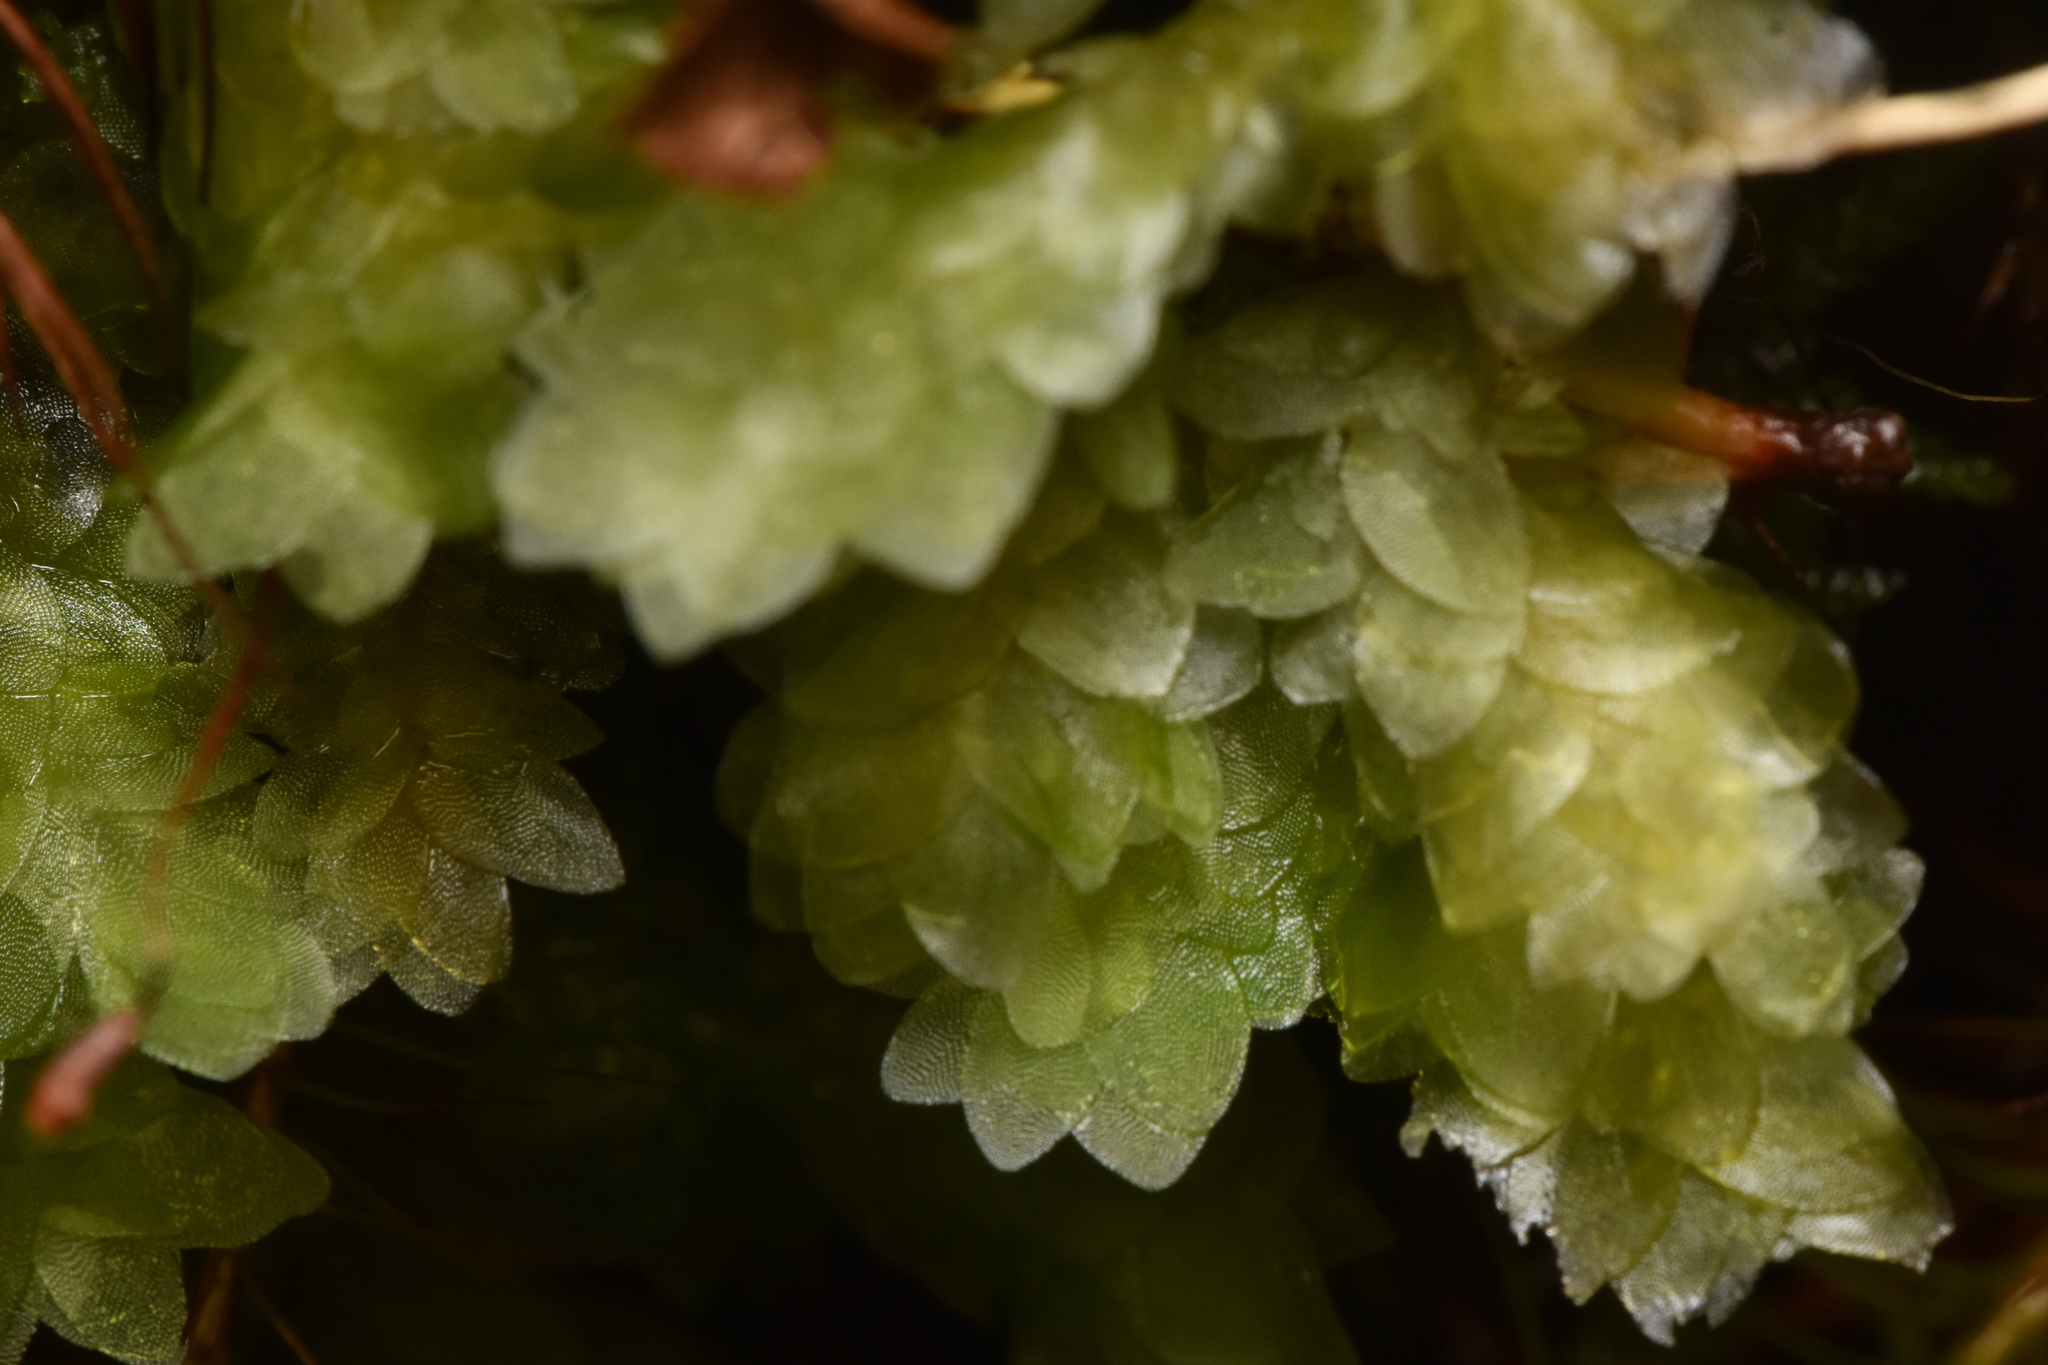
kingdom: Plantae
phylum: Bryophyta
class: Bryopsida
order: Hookeriales
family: Hookeriaceae
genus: Hookeria
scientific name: Hookeria lucens
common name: Shining hookeria
